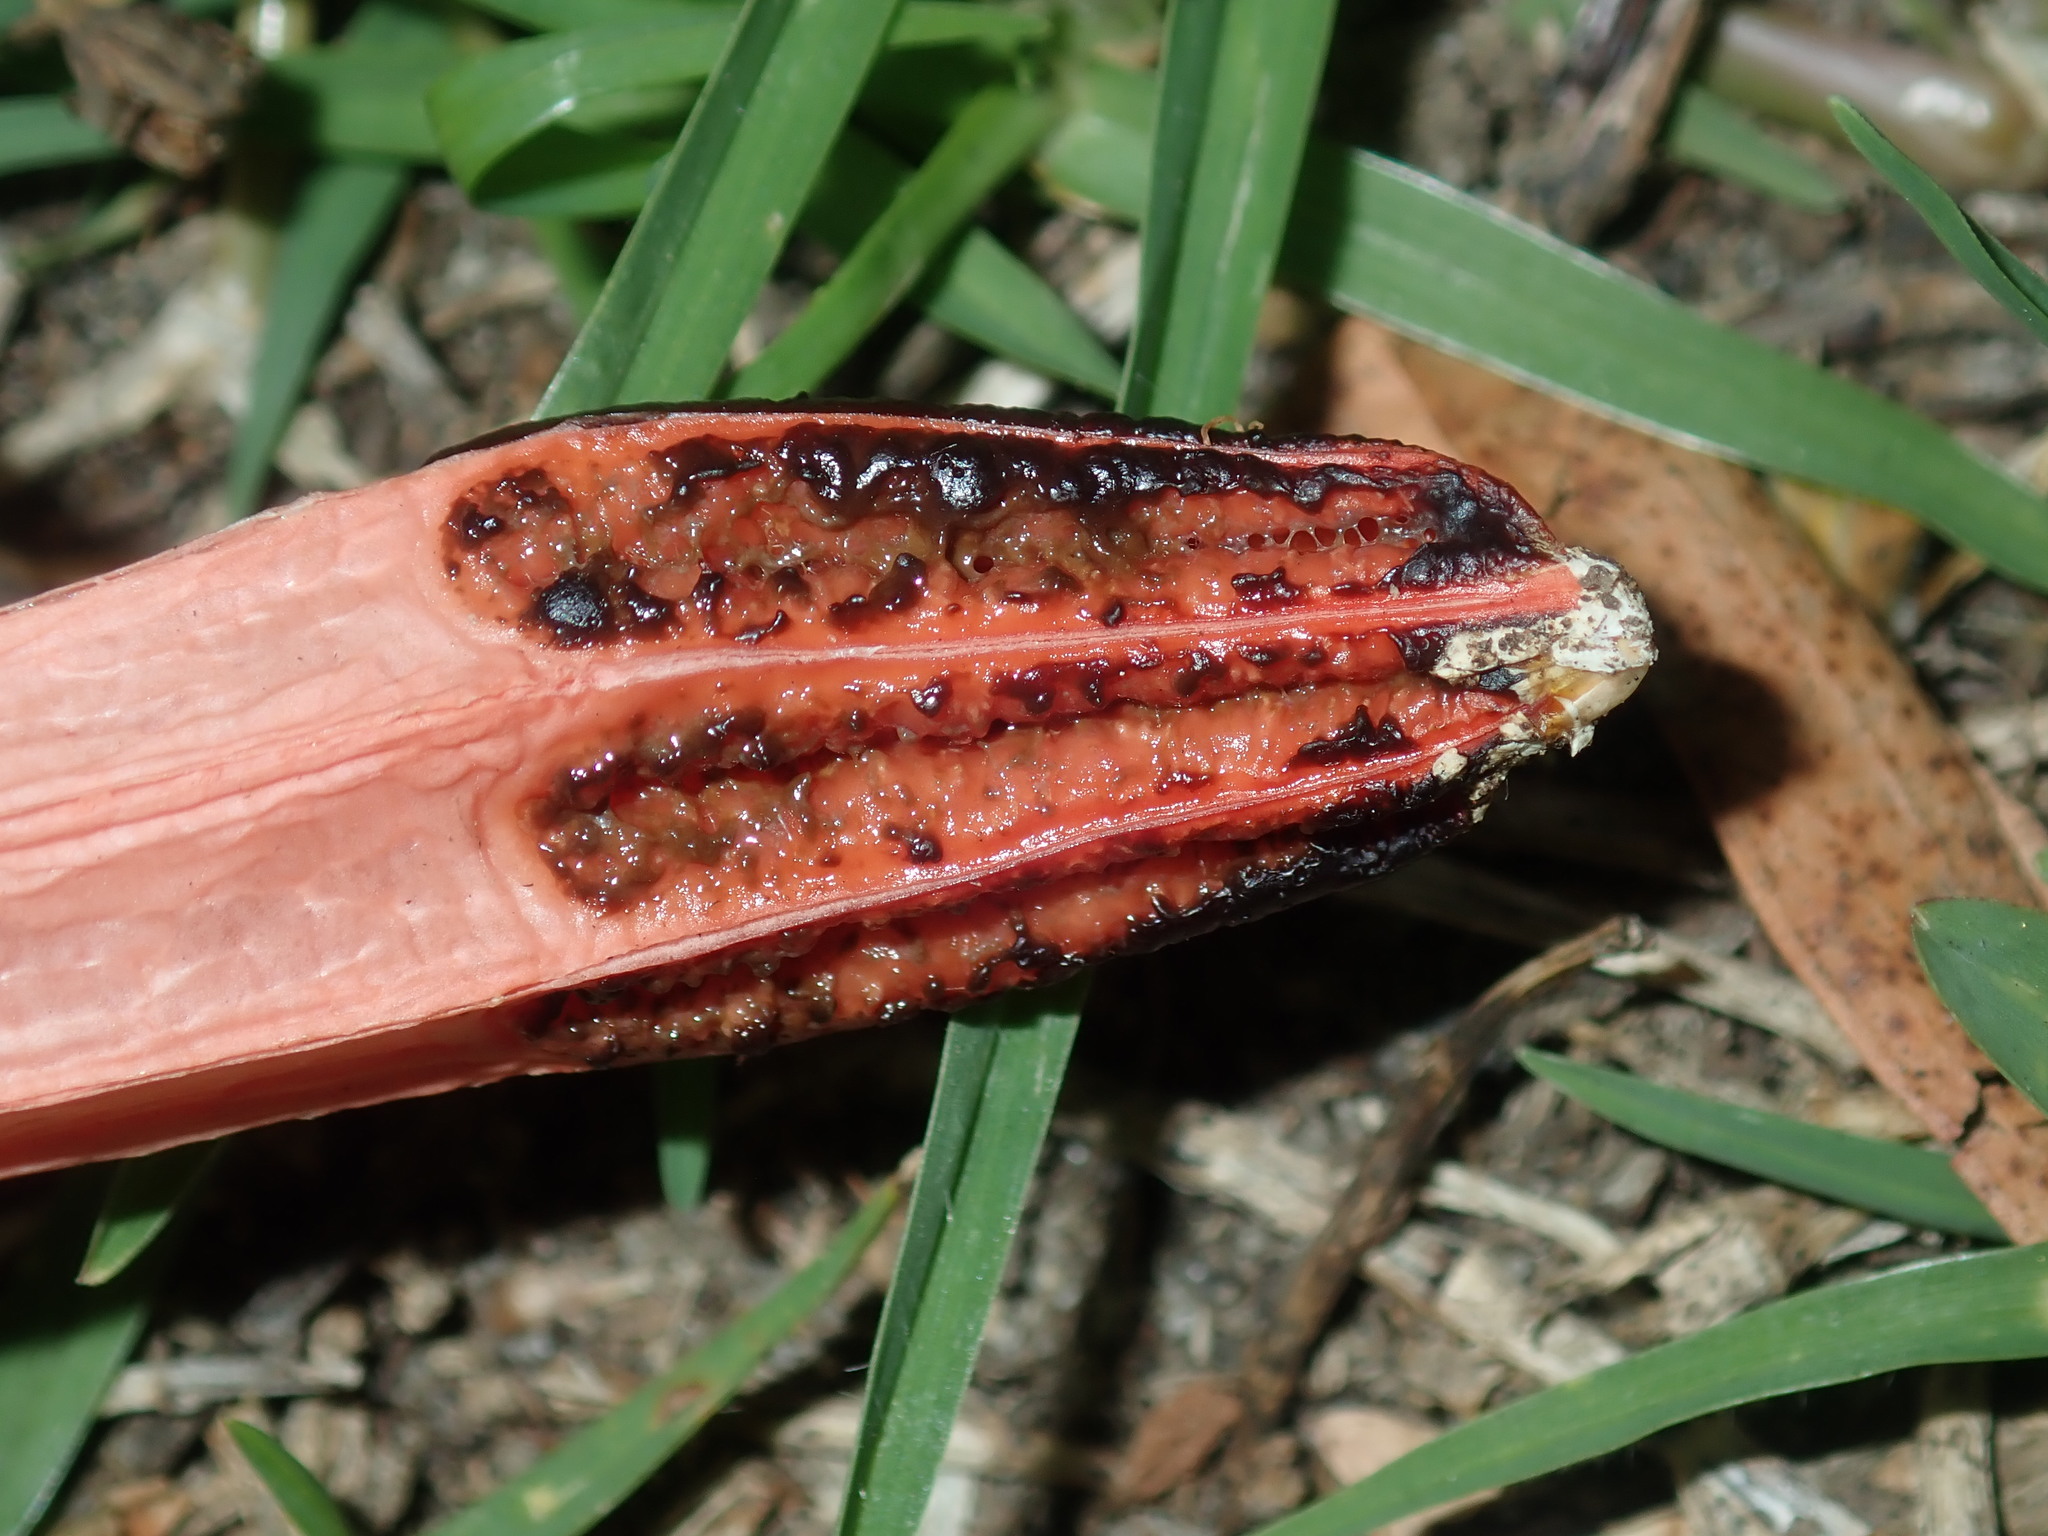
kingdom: Fungi
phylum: Basidiomycota
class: Agaricomycetes
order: Phallales
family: Phallaceae
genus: Lysurus
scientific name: Lysurus mokusin
